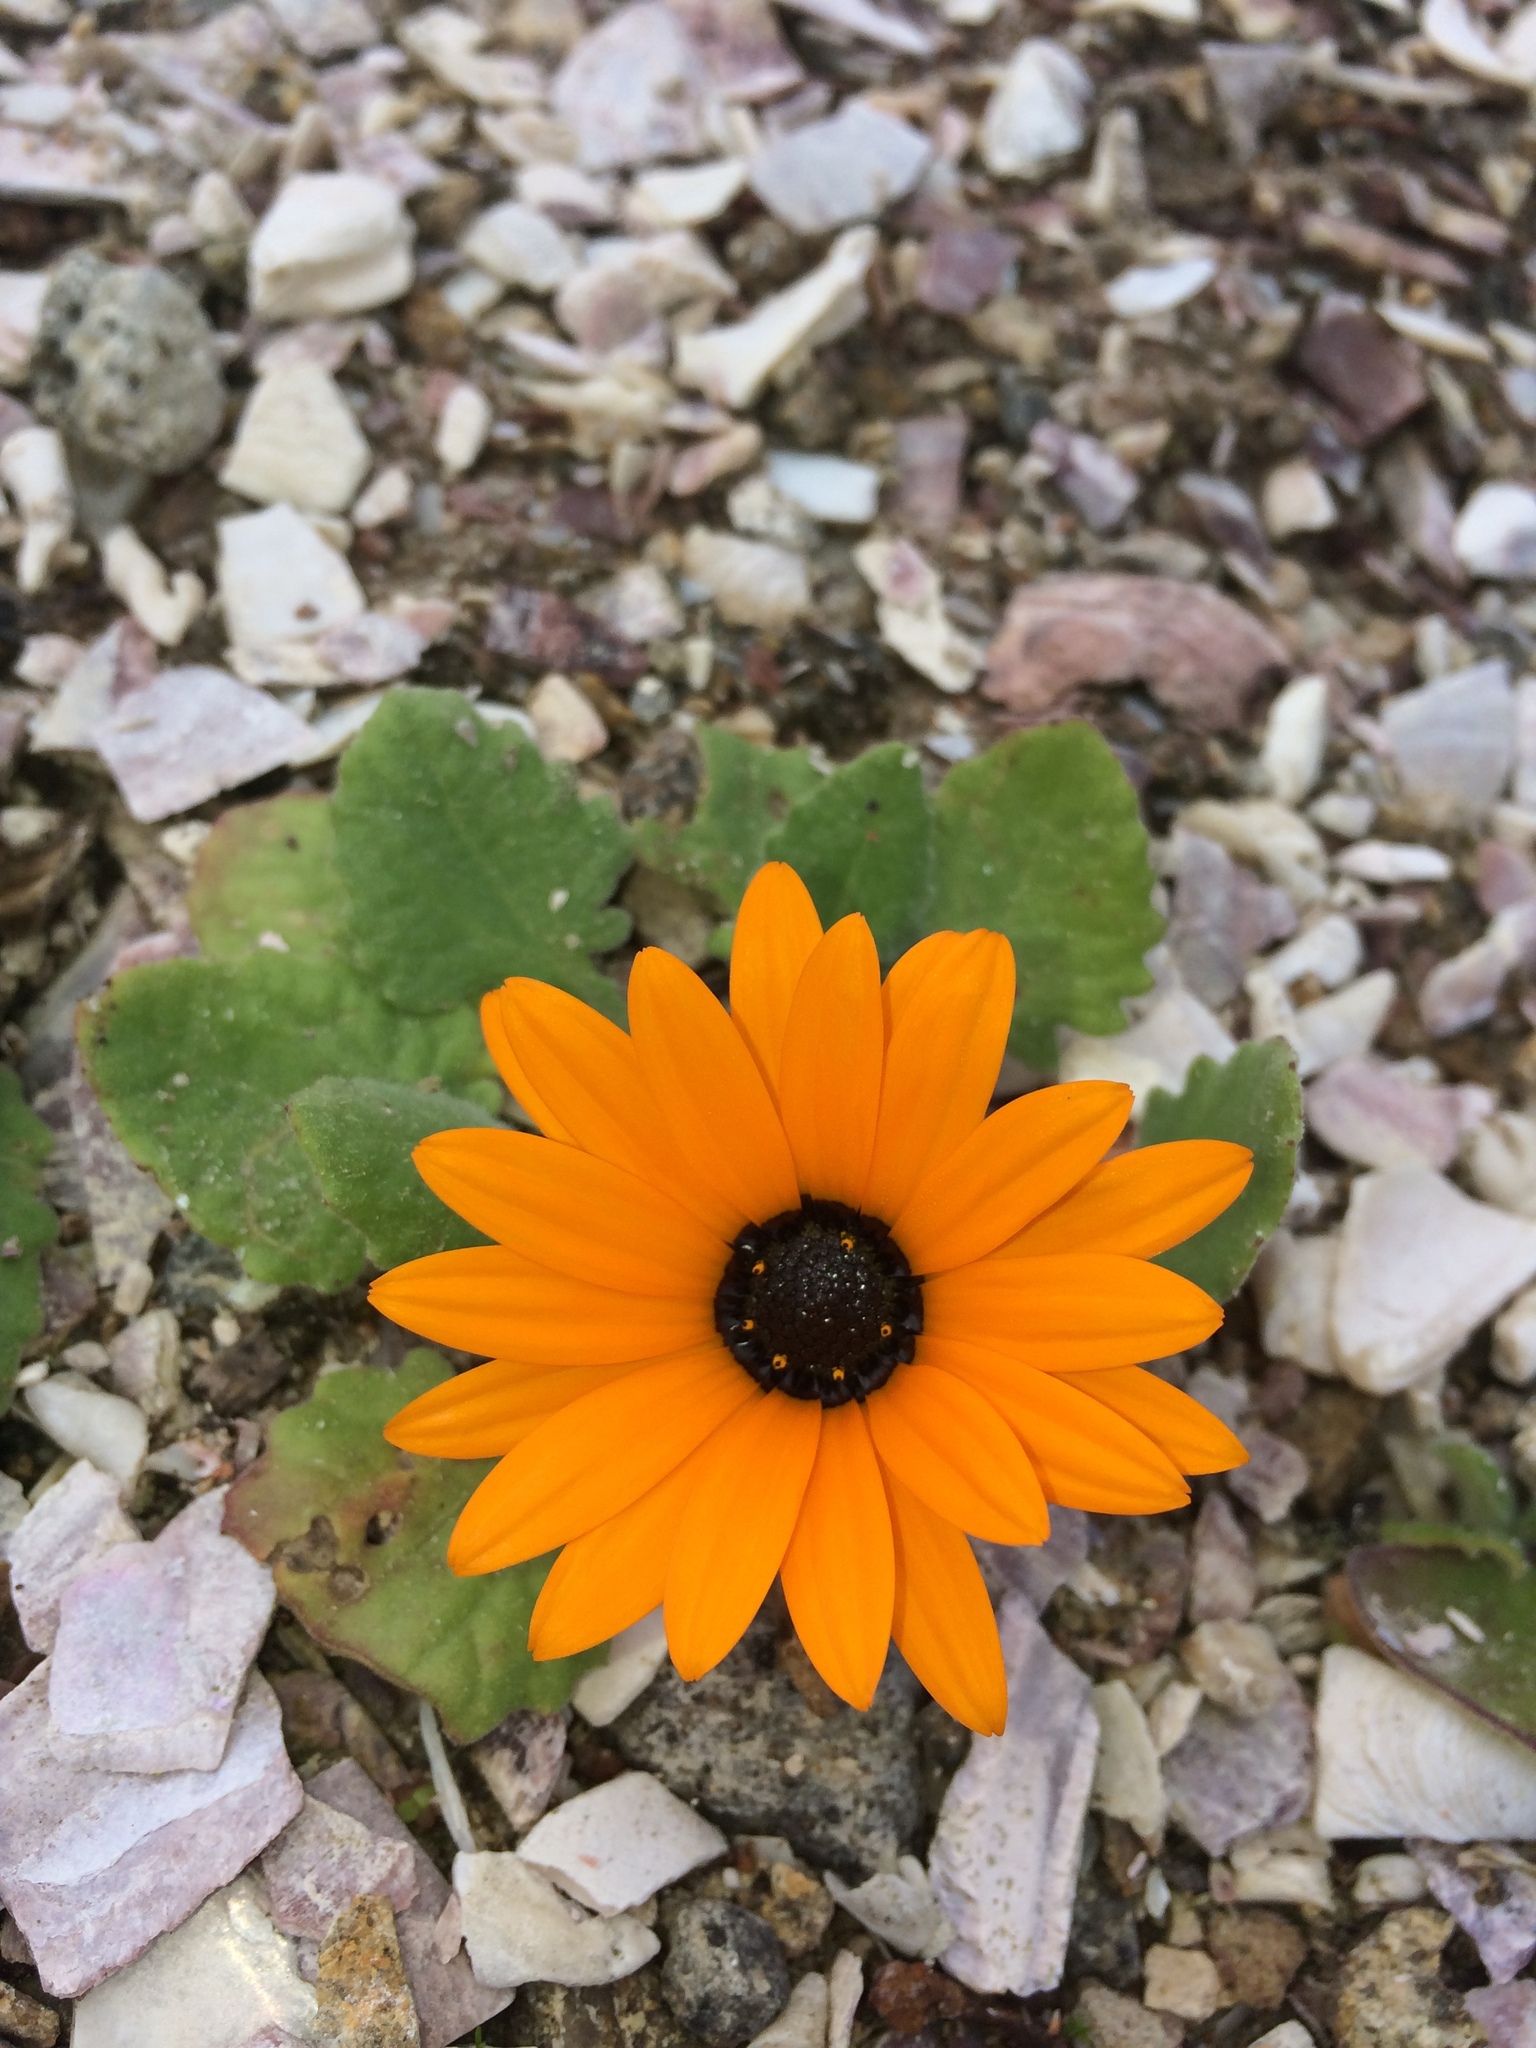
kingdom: Plantae
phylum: Tracheophyta
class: Magnoliopsida
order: Asterales
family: Asteraceae
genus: Arctotis
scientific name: Arctotis hirsuta
